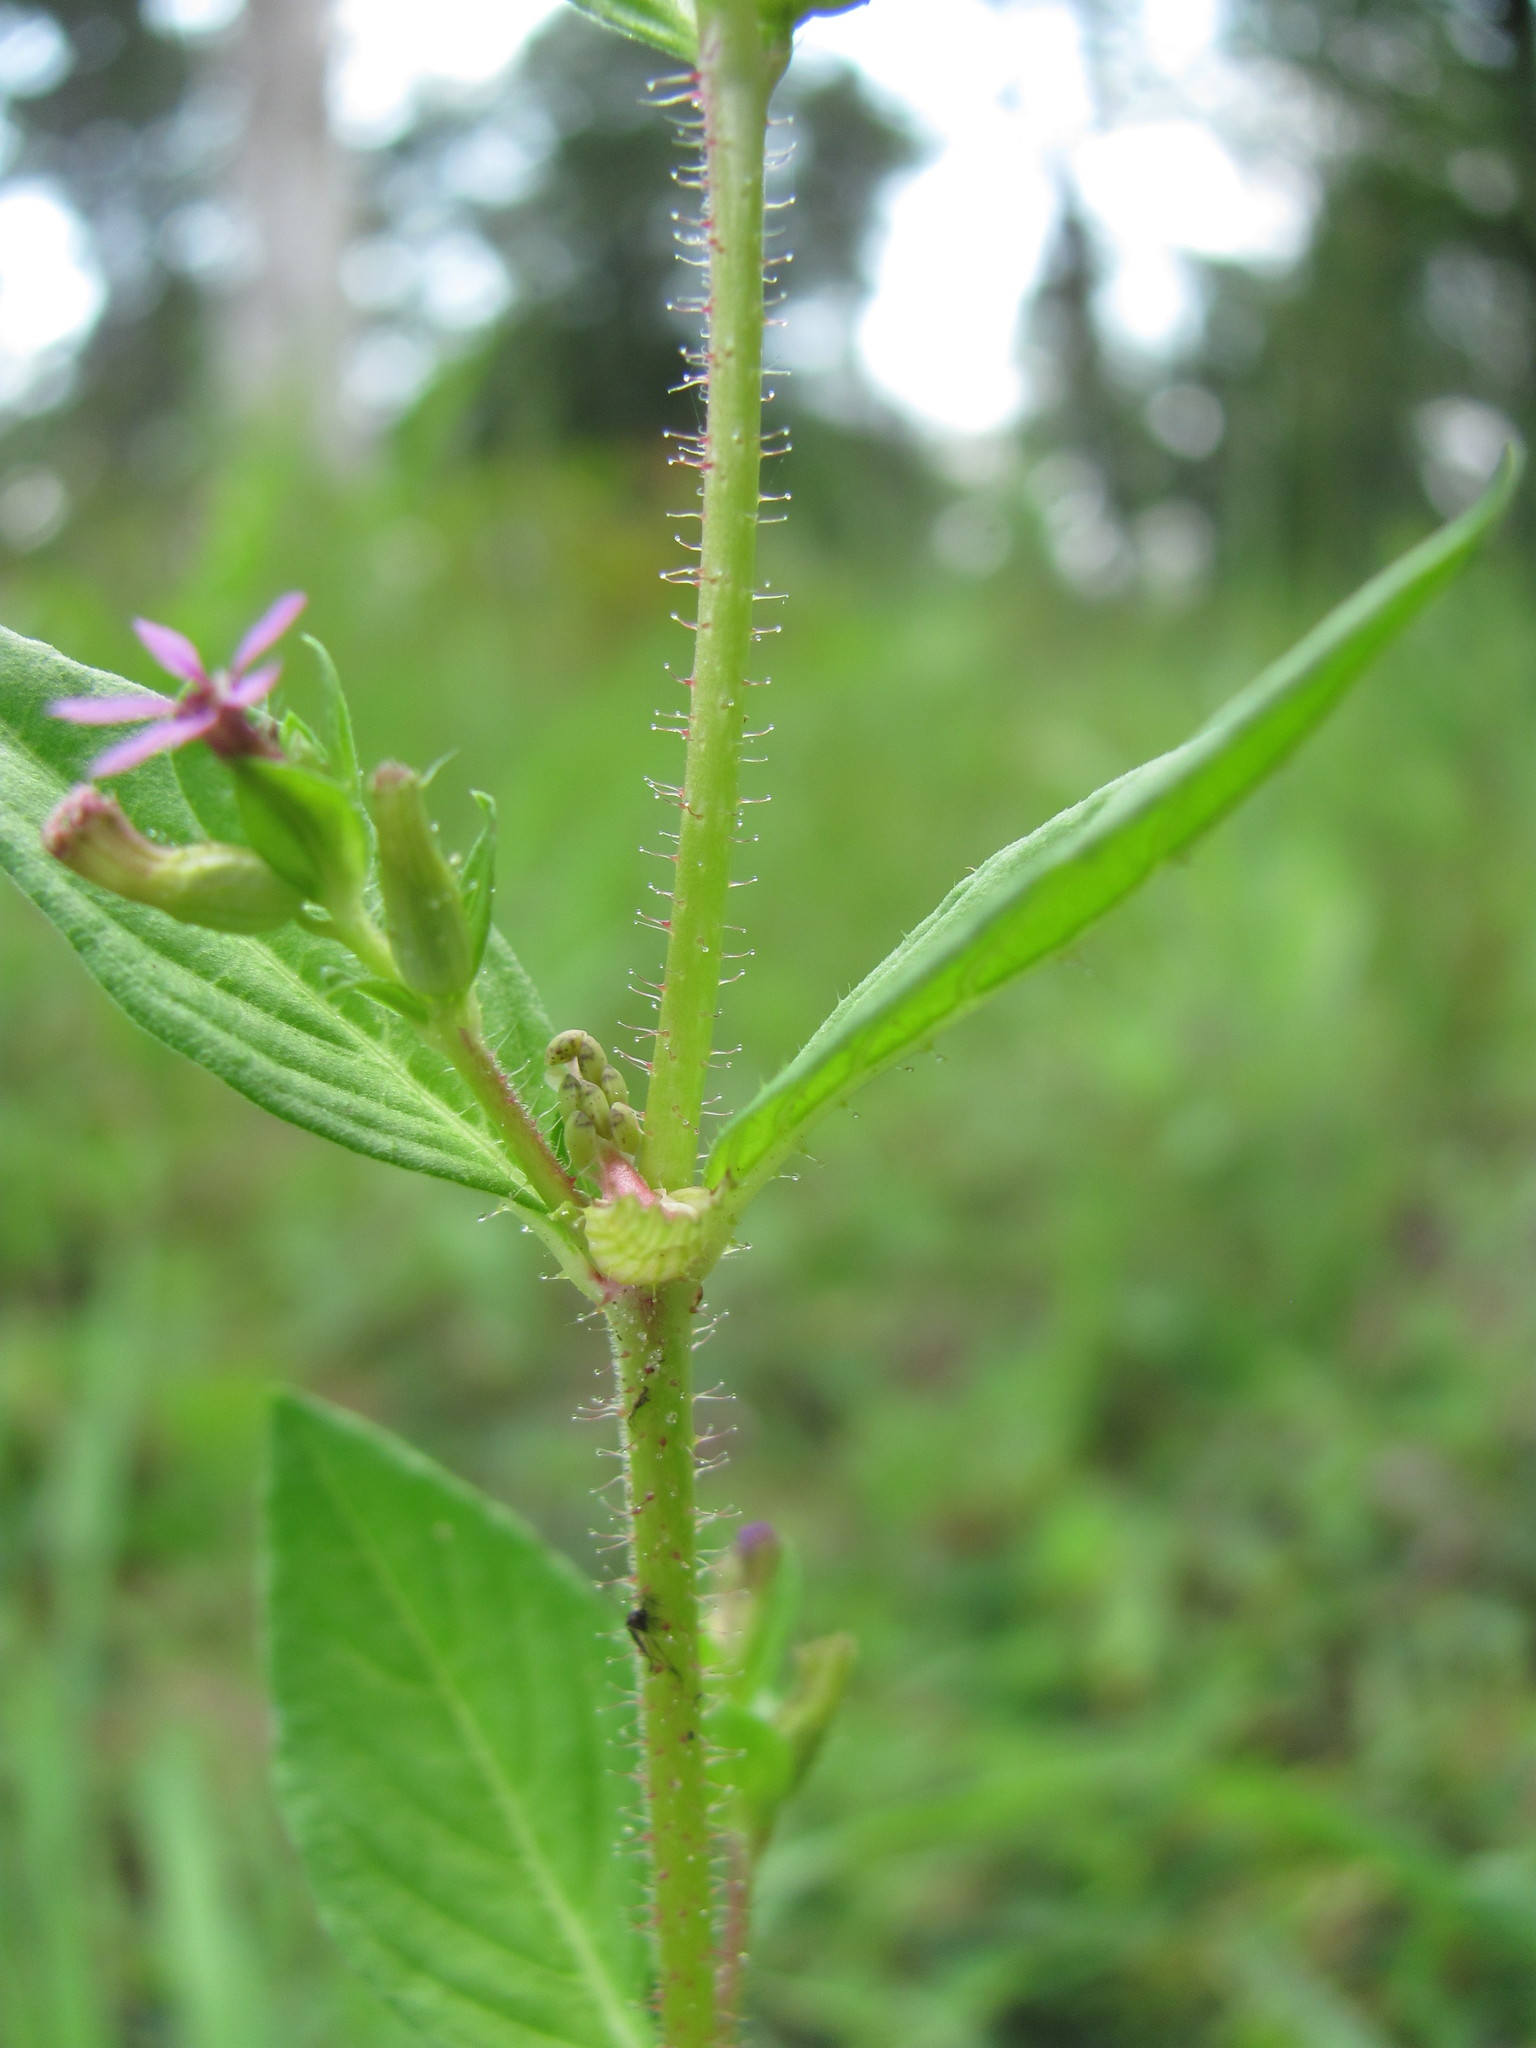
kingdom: Plantae
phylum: Tracheophyta
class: Magnoliopsida
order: Myrtales
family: Lythraceae
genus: Cuphea
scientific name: Cuphea carthagenensis
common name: Colombian waxweed
